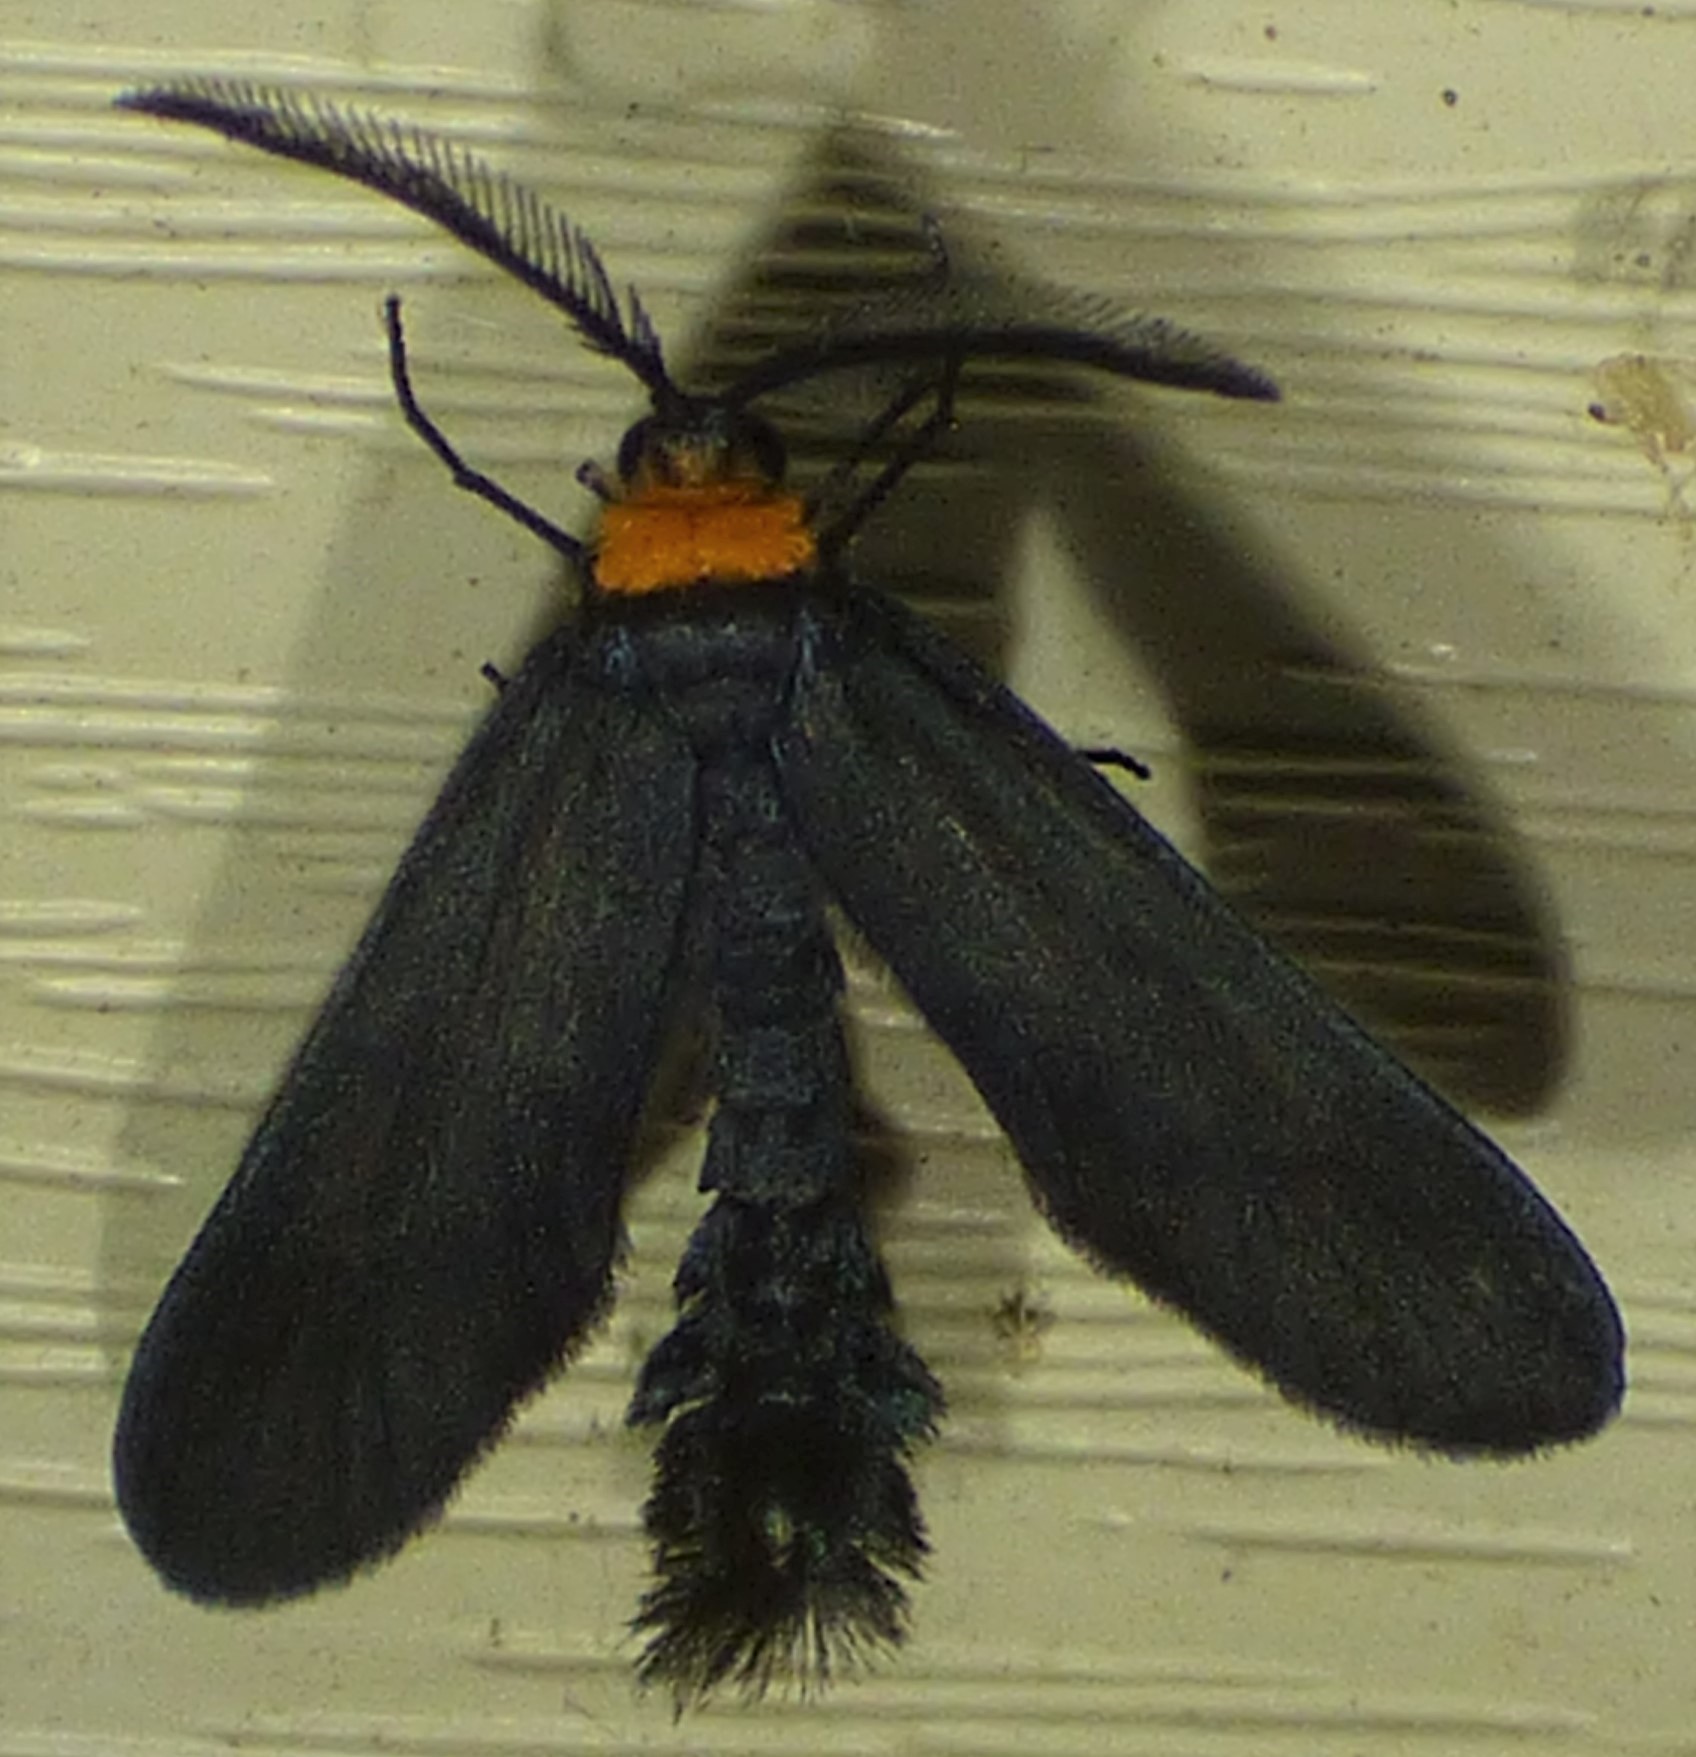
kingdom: Animalia
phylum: Arthropoda
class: Insecta
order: Lepidoptera
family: Zygaenidae
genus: Harrisina
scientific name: Harrisina americana
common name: Grapeleaf skeletonizer moth
